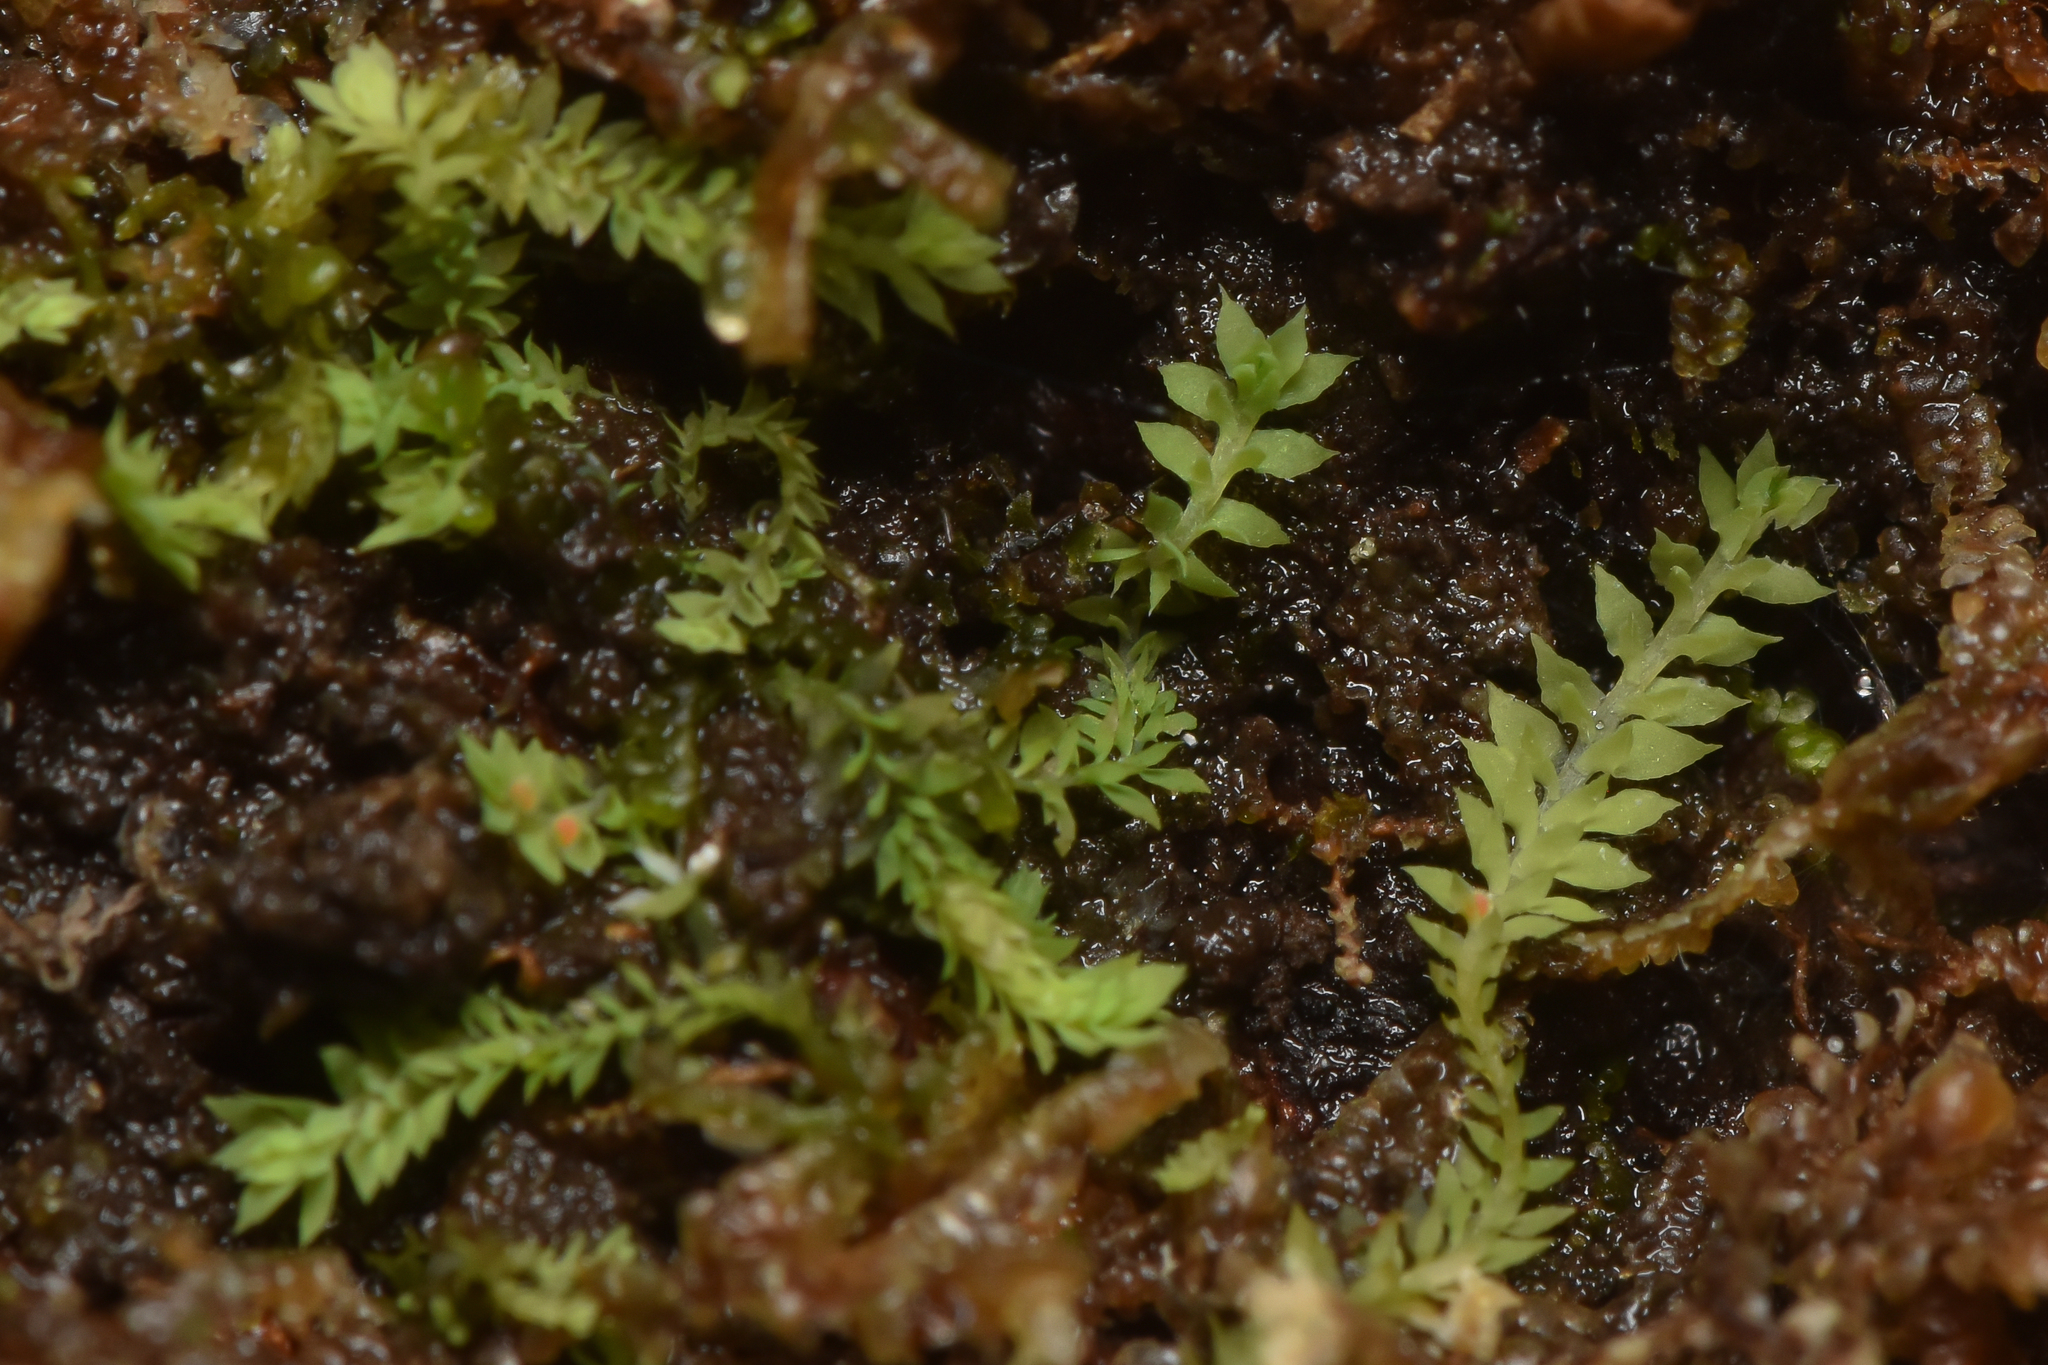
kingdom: Plantae
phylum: Marchantiophyta
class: Jungermanniopsida
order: Jungermanniales
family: Scapaniaceae
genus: Douinia
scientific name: Douinia ovata
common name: Waxy earwort
